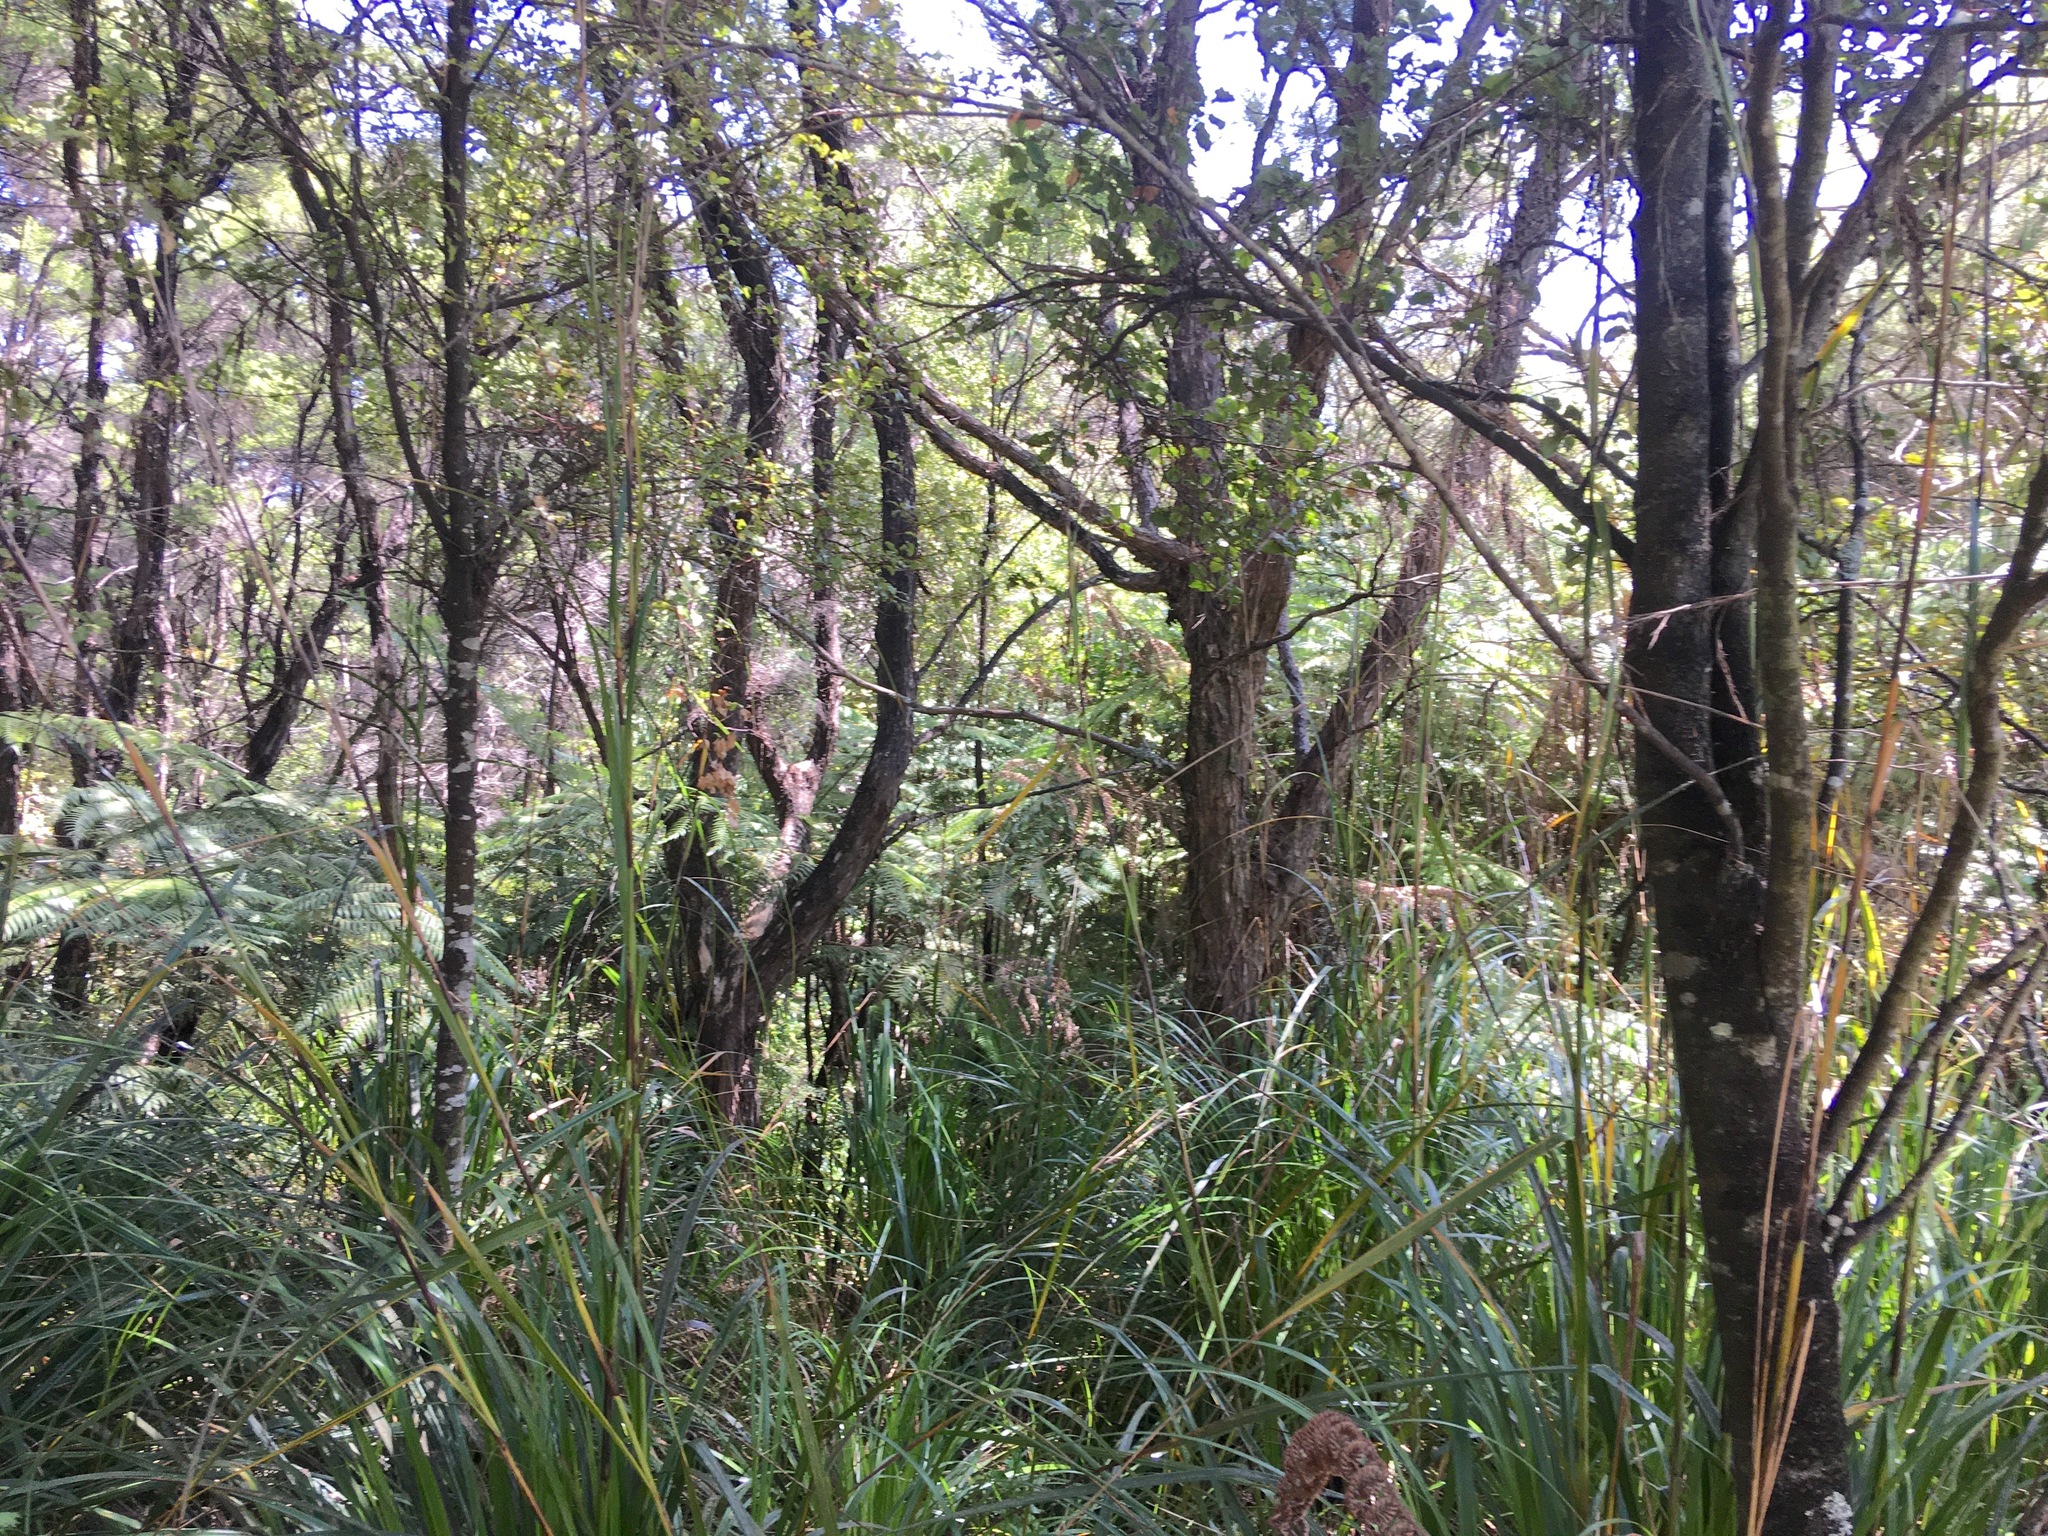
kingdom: Plantae
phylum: Tracheophyta
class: Magnoliopsida
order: Ericales
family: Primulaceae
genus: Myrsine
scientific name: Myrsine australis
